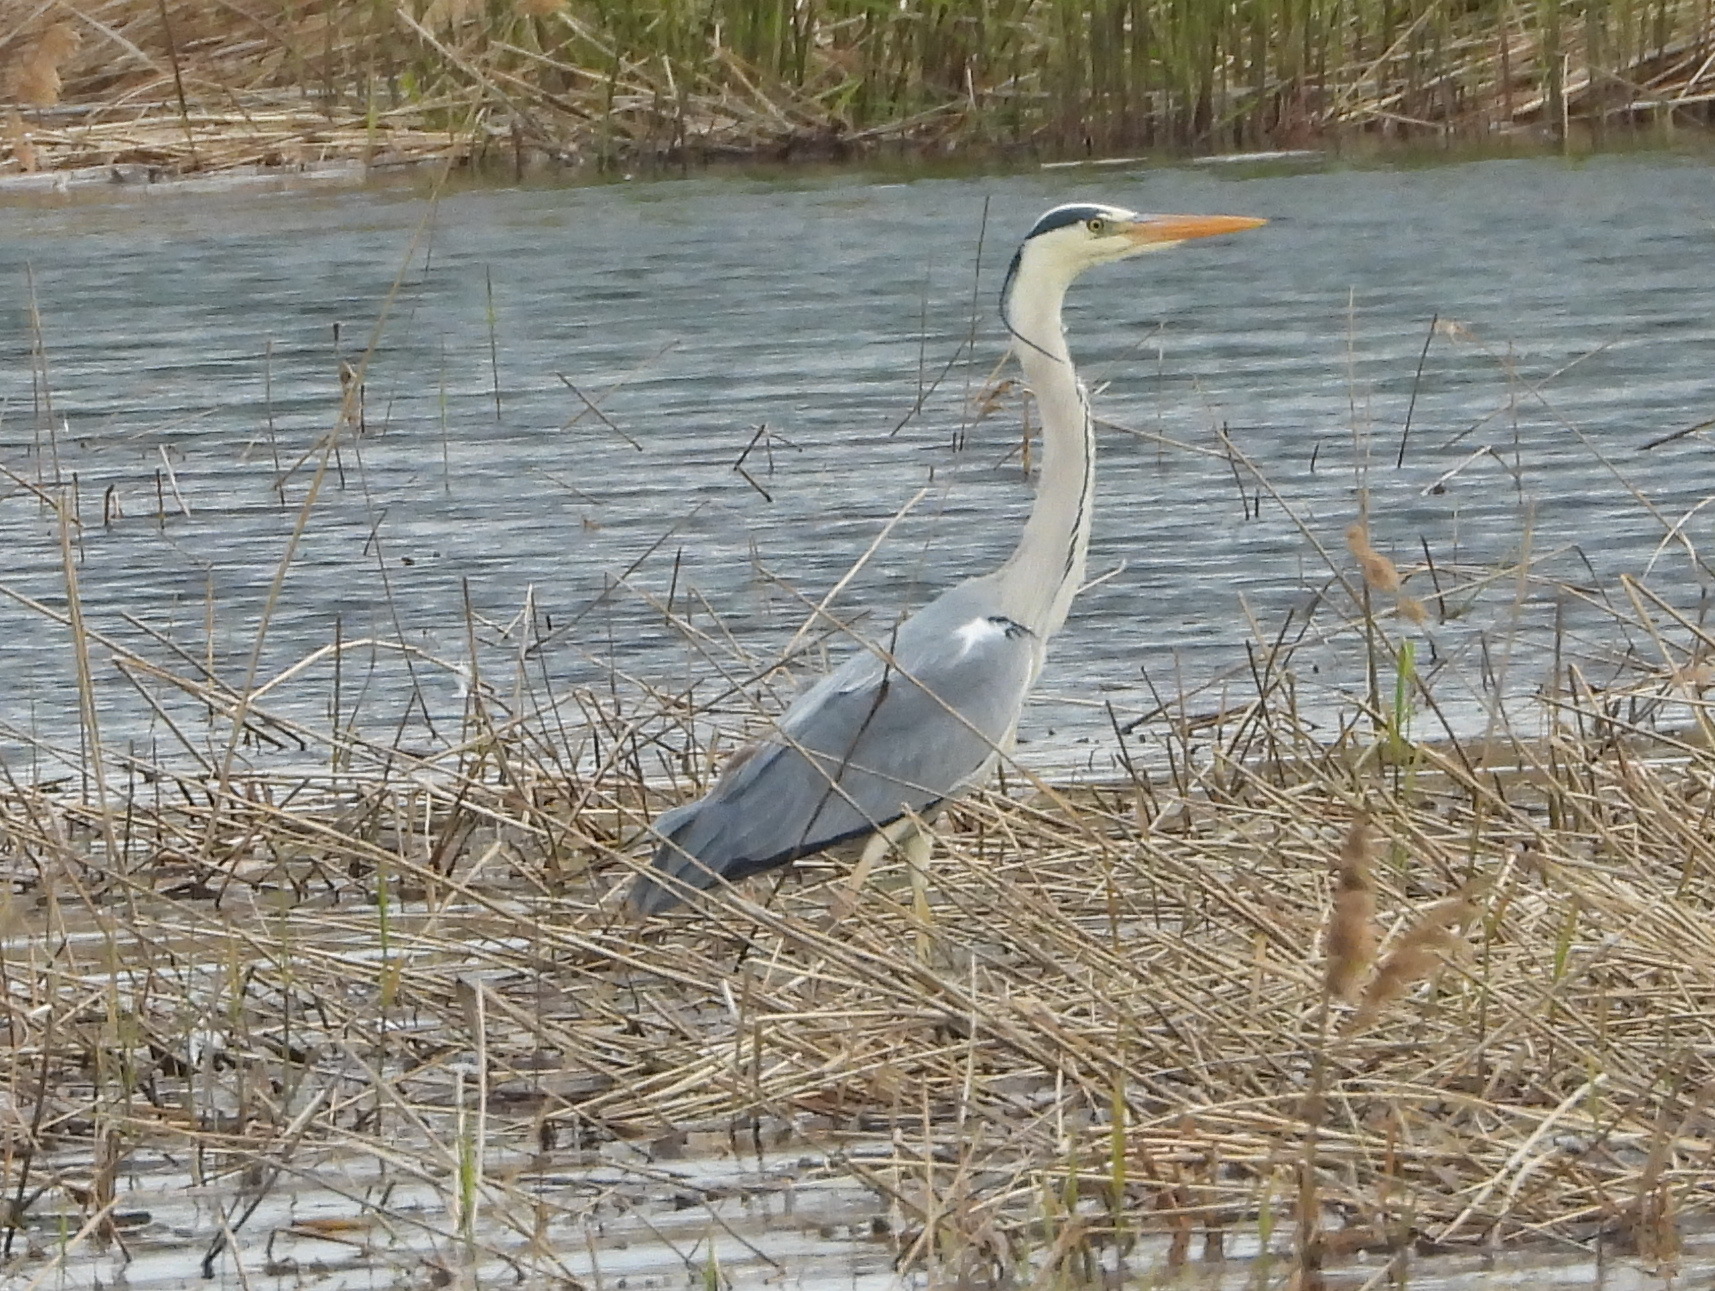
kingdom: Animalia
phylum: Chordata
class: Aves
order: Pelecaniformes
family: Ardeidae
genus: Ardea
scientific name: Ardea cinerea
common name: Grey heron
